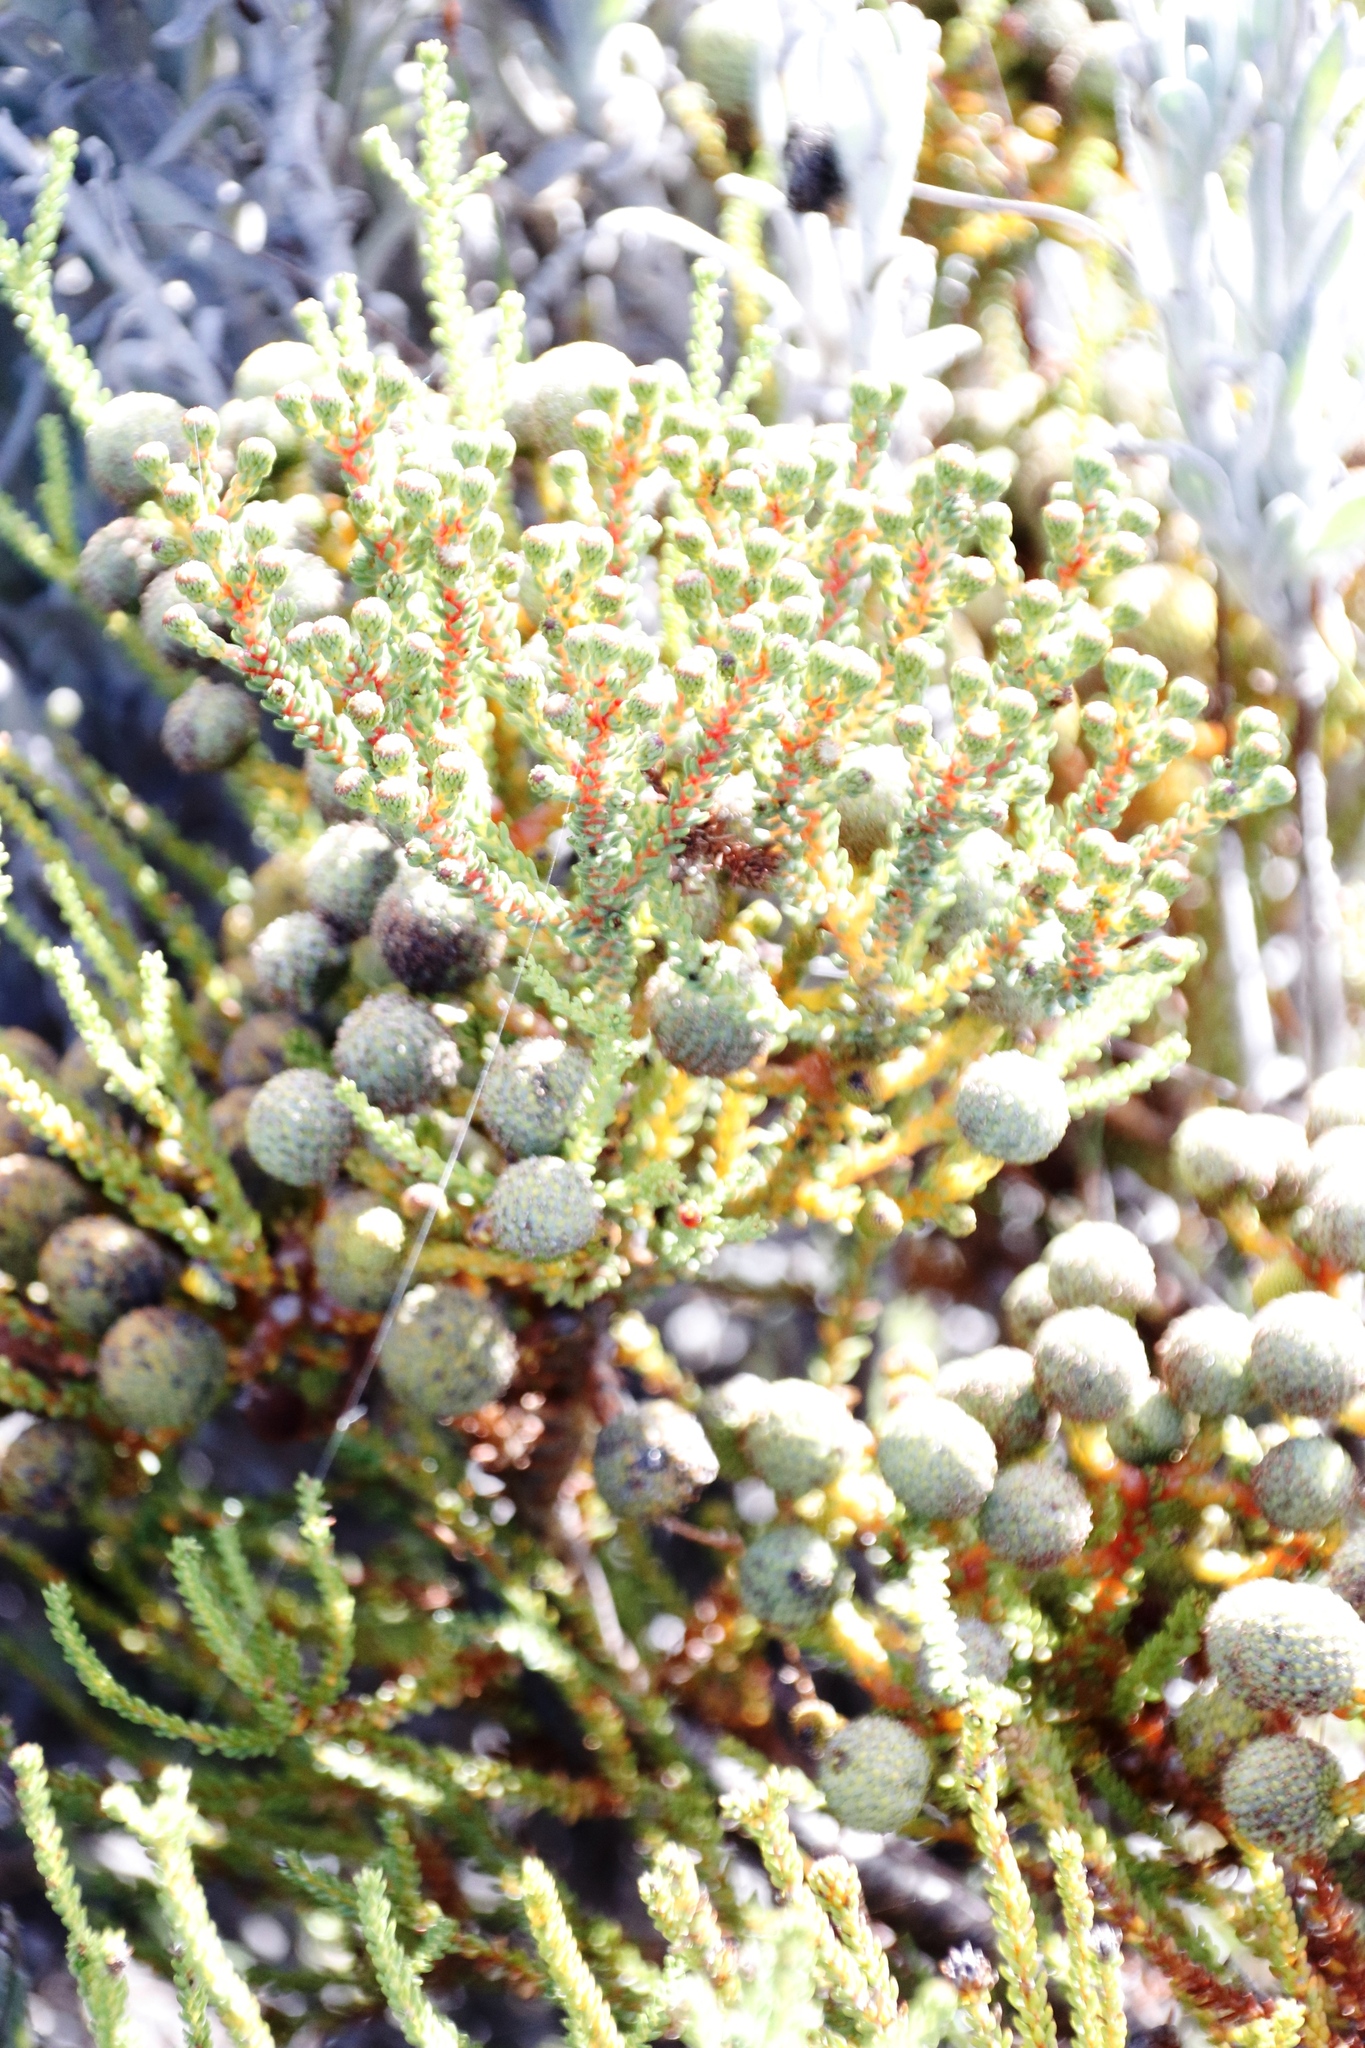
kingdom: Plantae
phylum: Tracheophyta
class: Magnoliopsida
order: Bruniales
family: Bruniaceae
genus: Berzelia
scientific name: Berzelia abrotanoides
